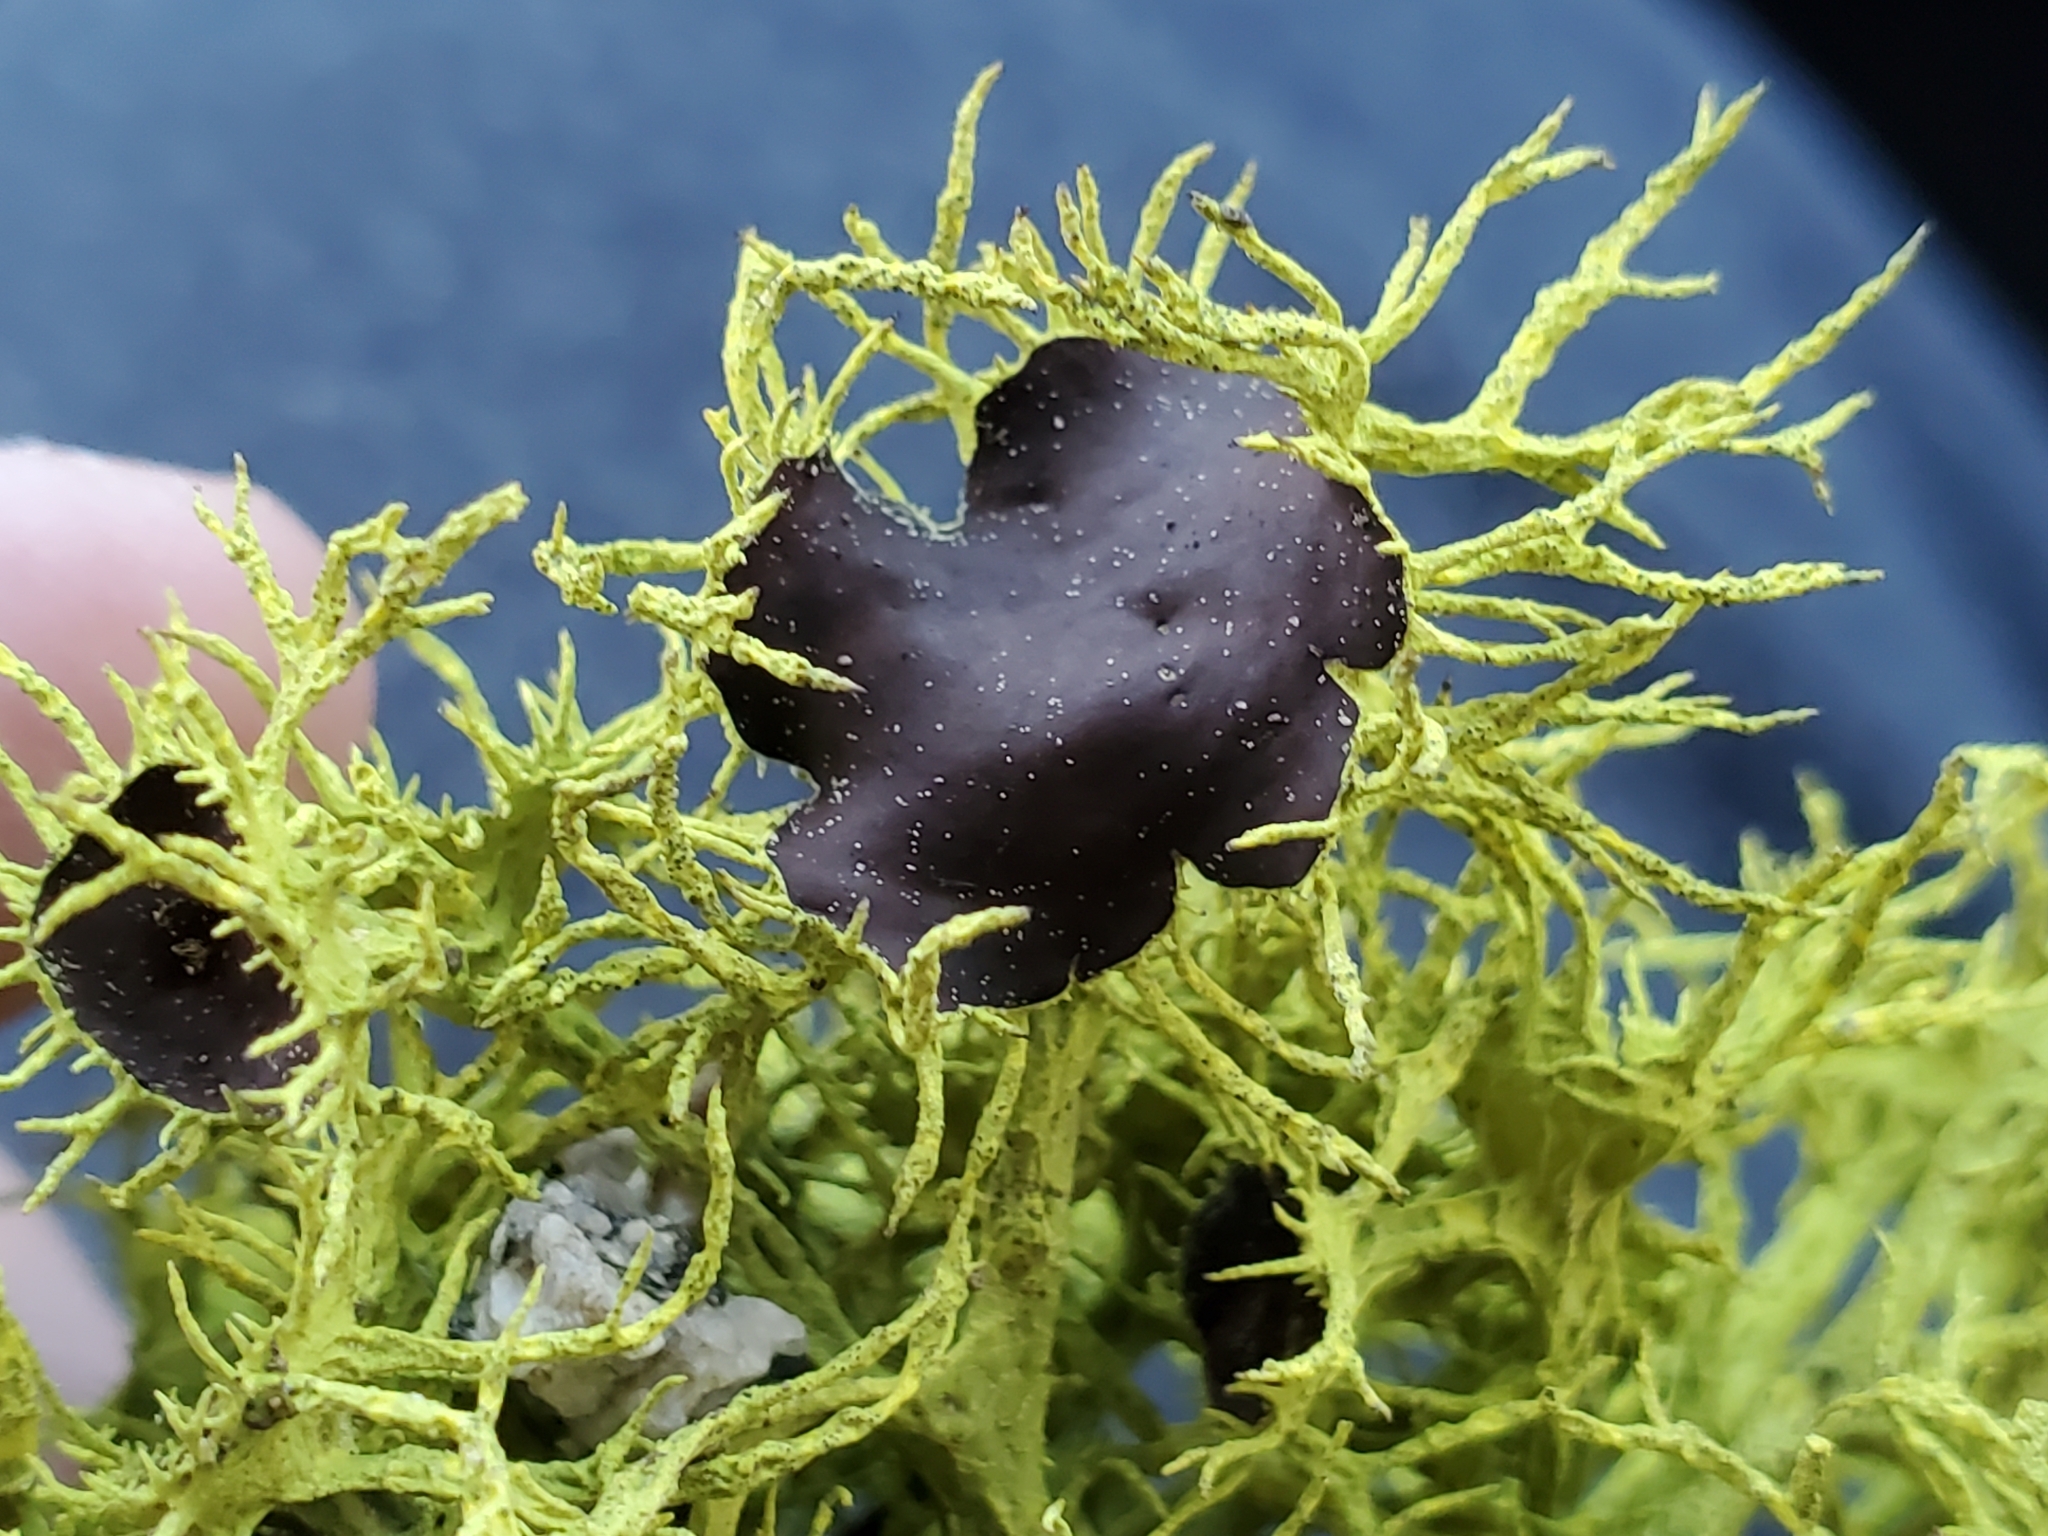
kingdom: Fungi
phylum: Ascomycota
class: Lecanoromycetes
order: Lecanorales
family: Parmeliaceae
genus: Letharia
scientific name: Letharia columbiana
